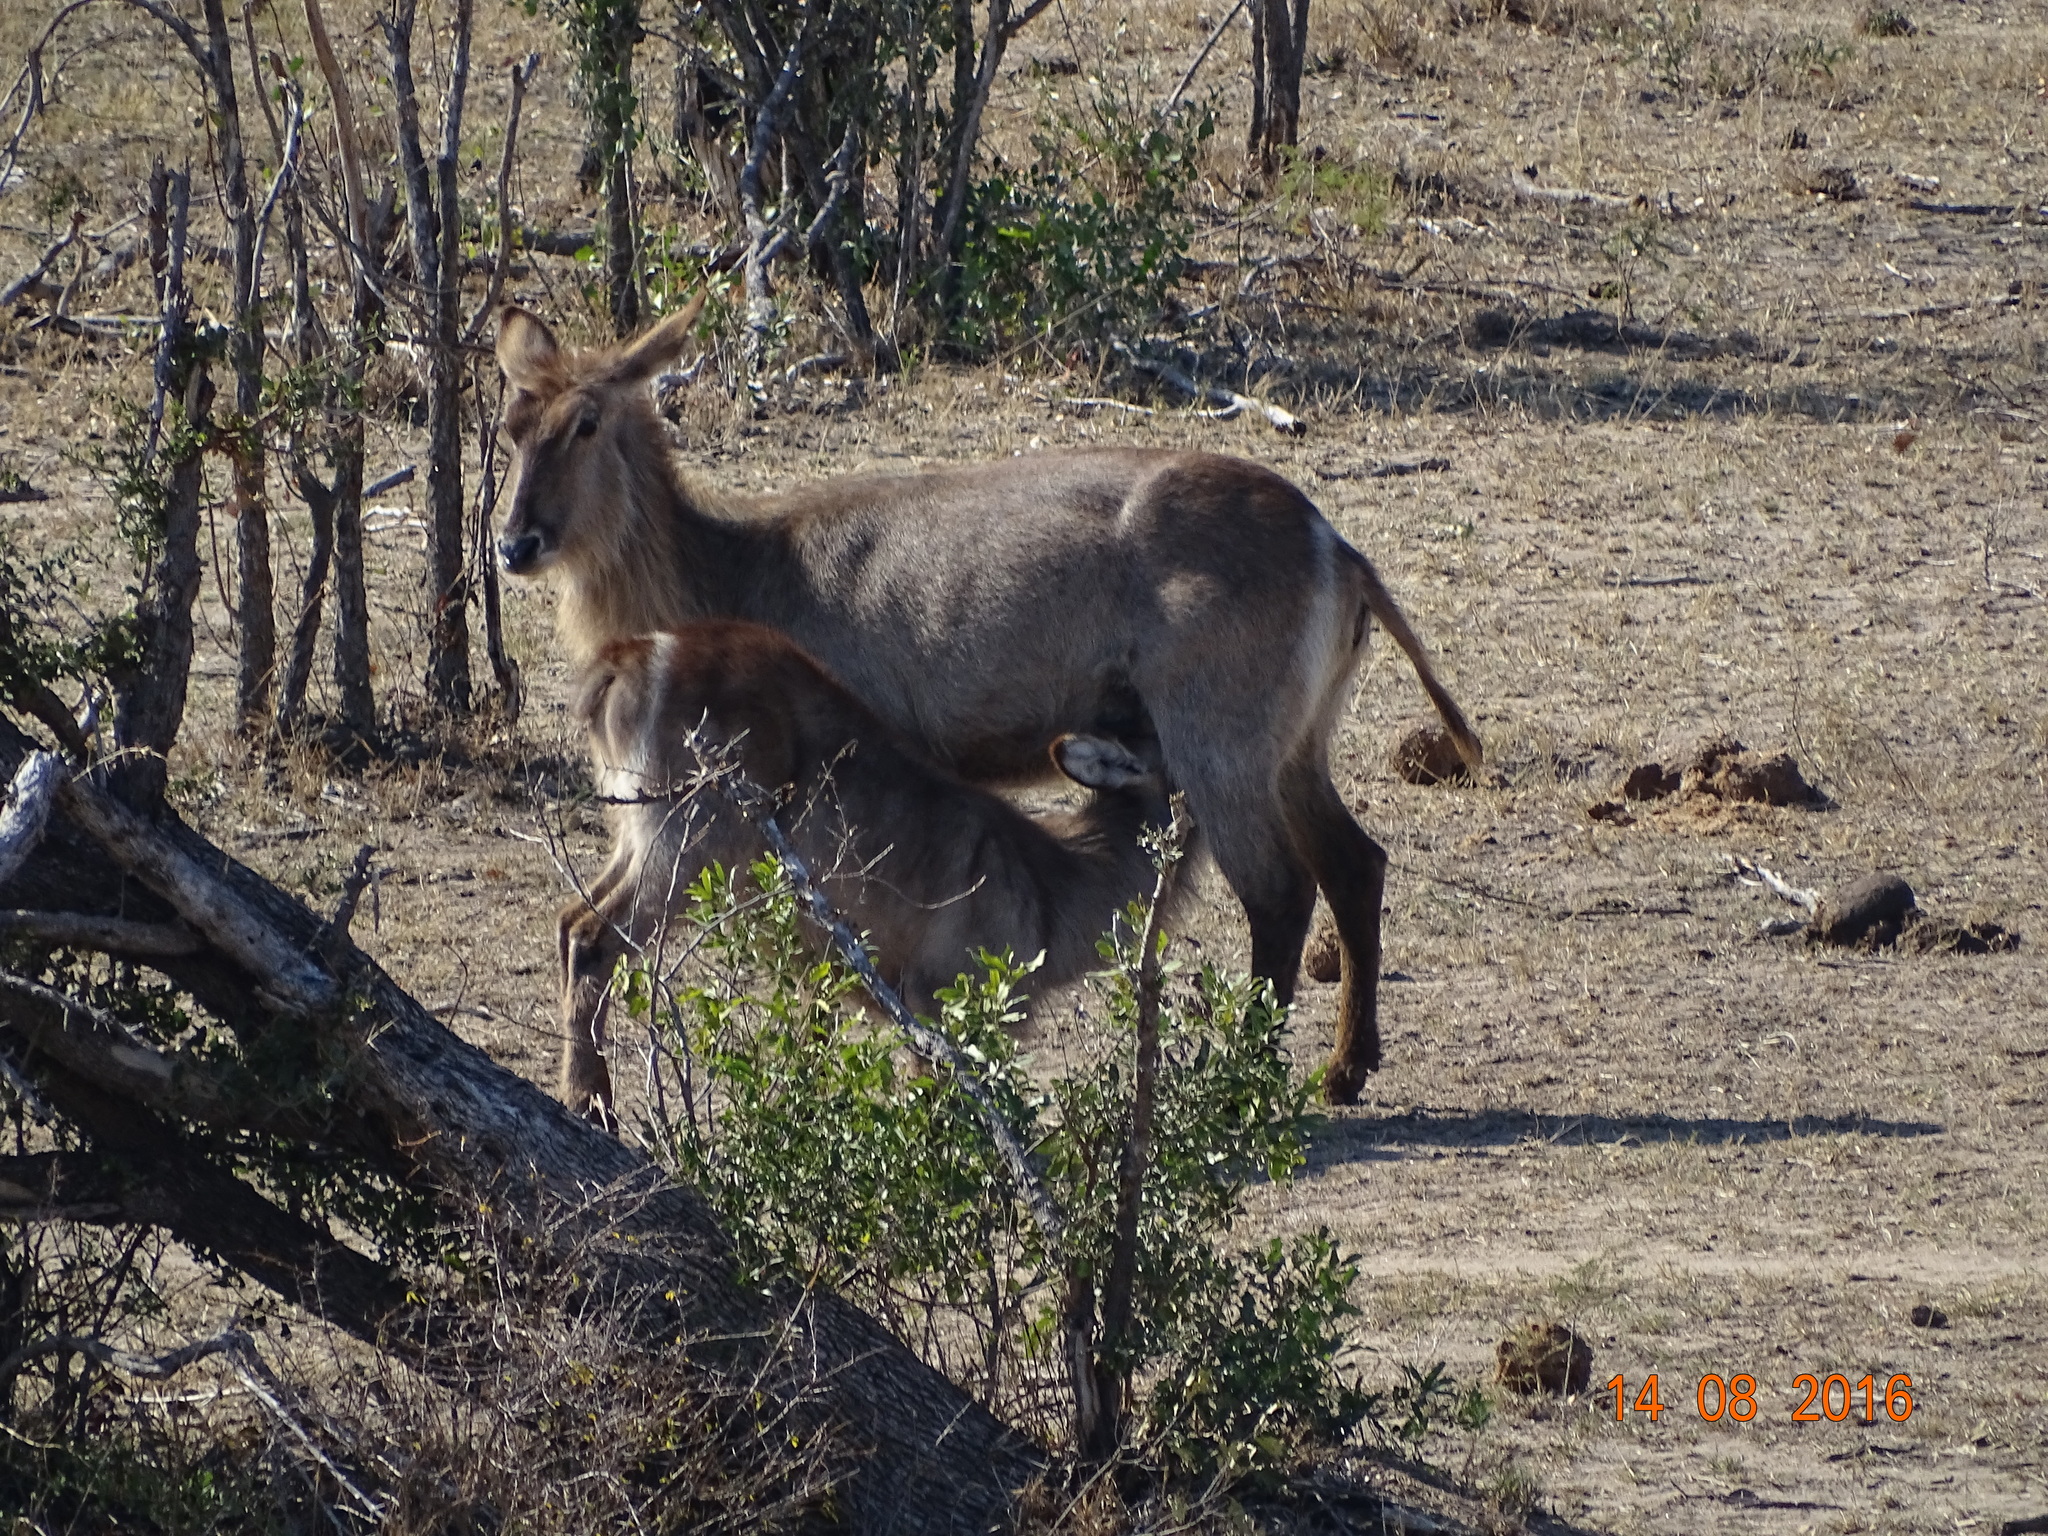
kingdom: Animalia
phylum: Chordata
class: Mammalia
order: Artiodactyla
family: Bovidae
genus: Kobus
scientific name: Kobus ellipsiprymnus
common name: Waterbuck
